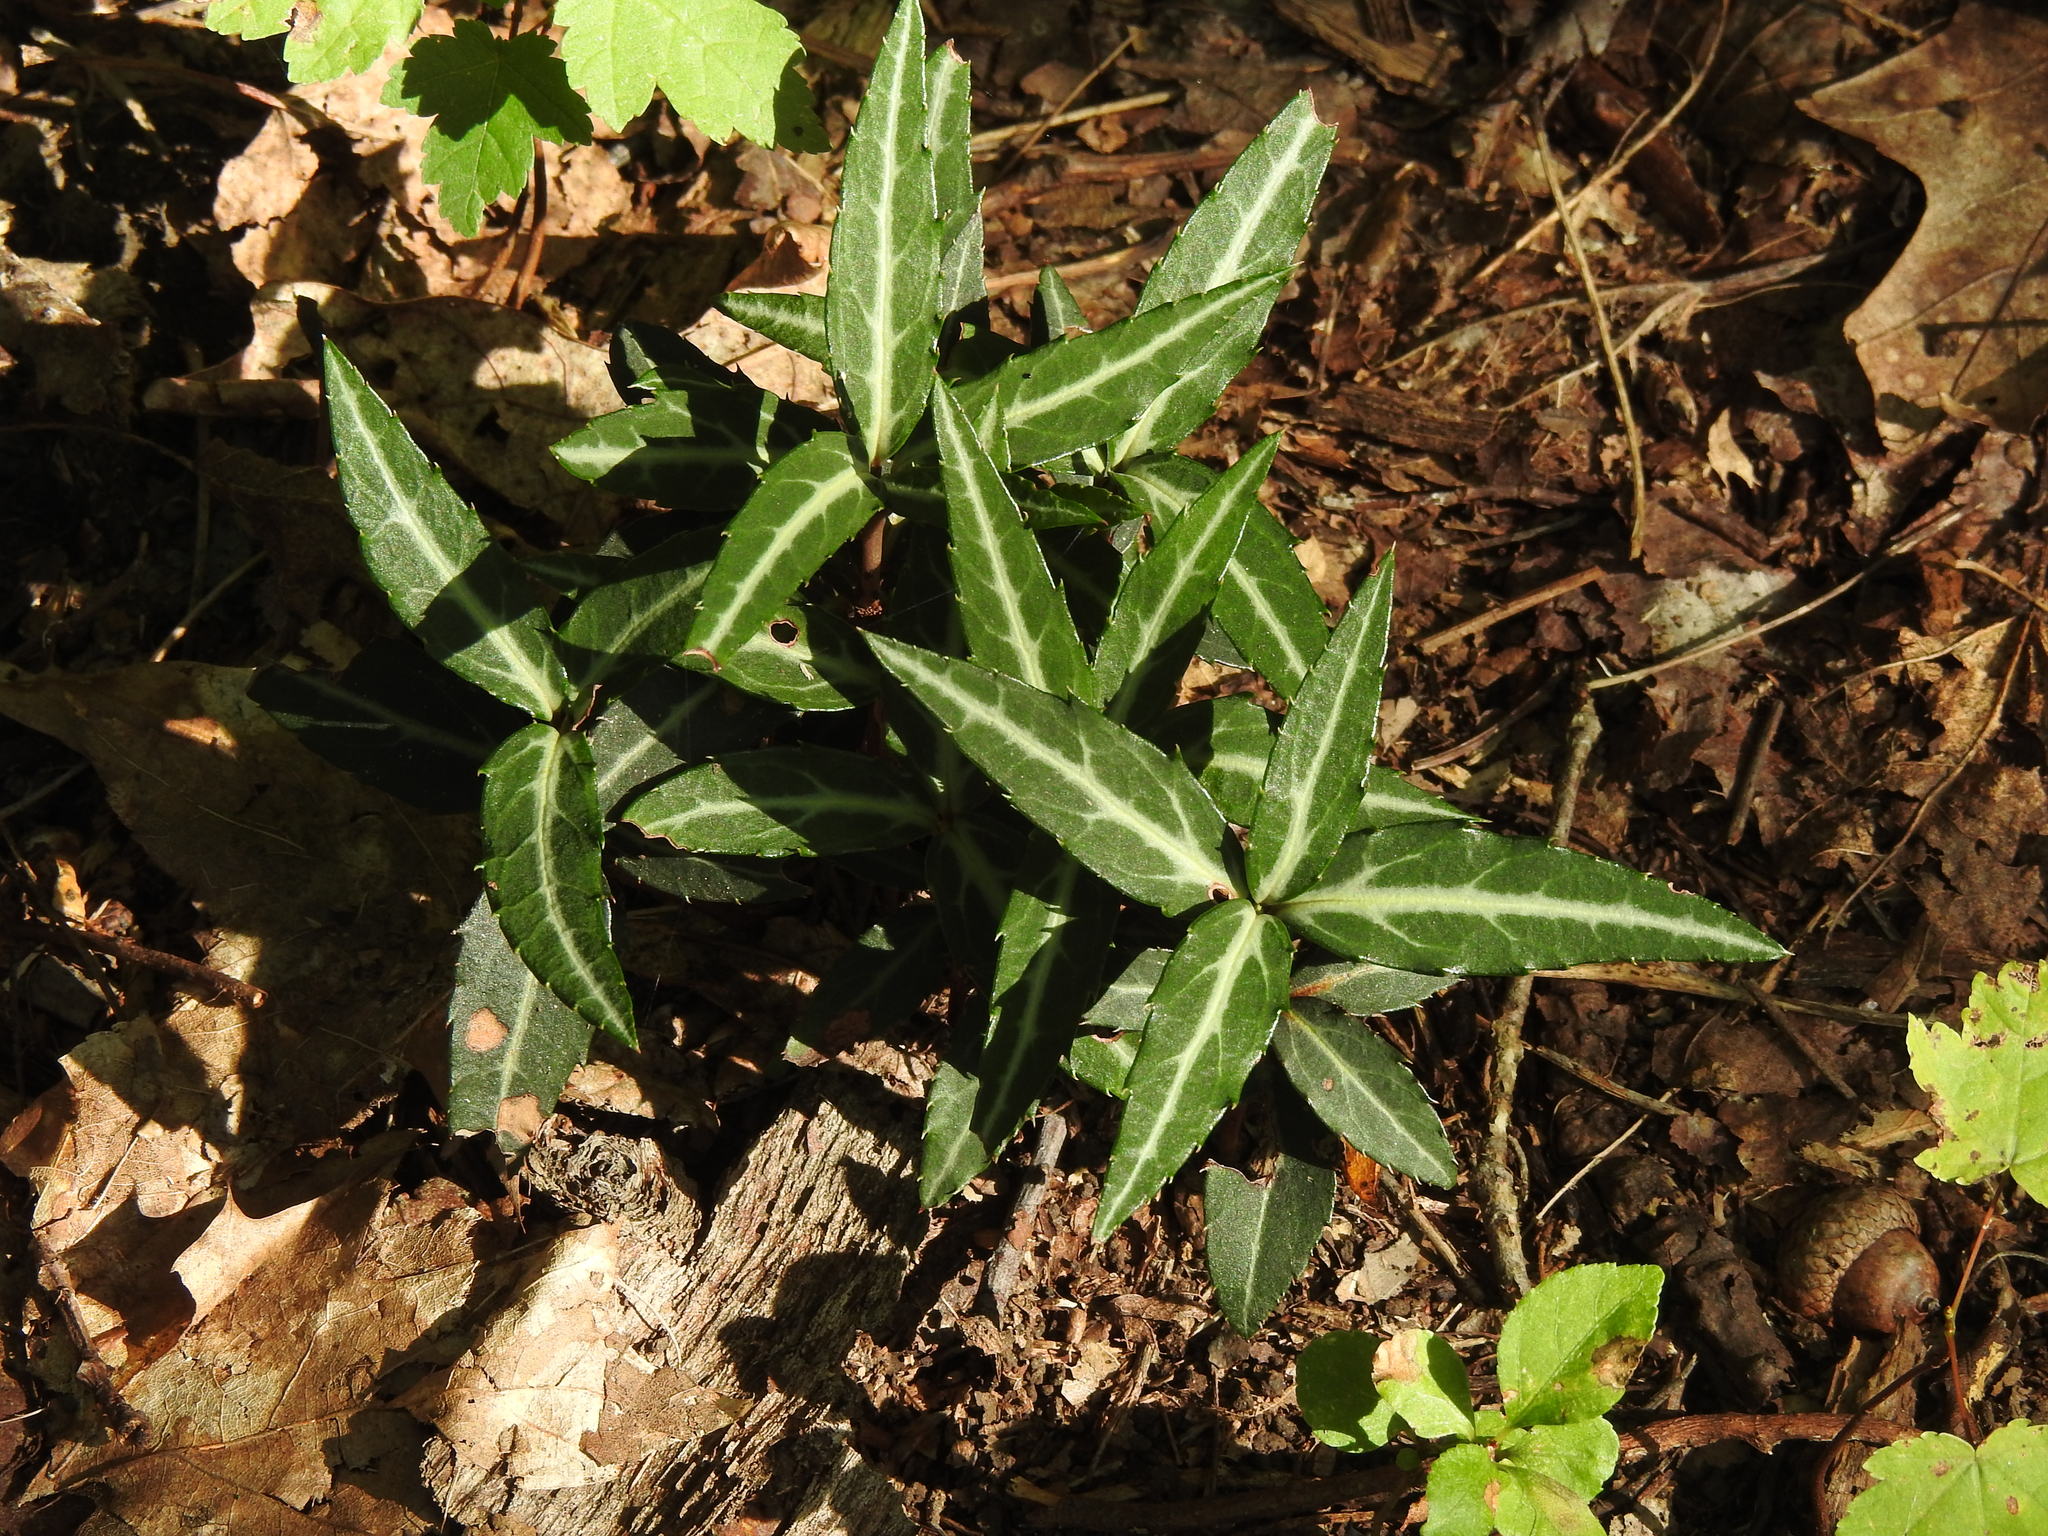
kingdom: Plantae
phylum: Tracheophyta
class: Magnoliopsida
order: Ericales
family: Ericaceae
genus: Chimaphila
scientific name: Chimaphila maculata
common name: Spotted pipsissewa
